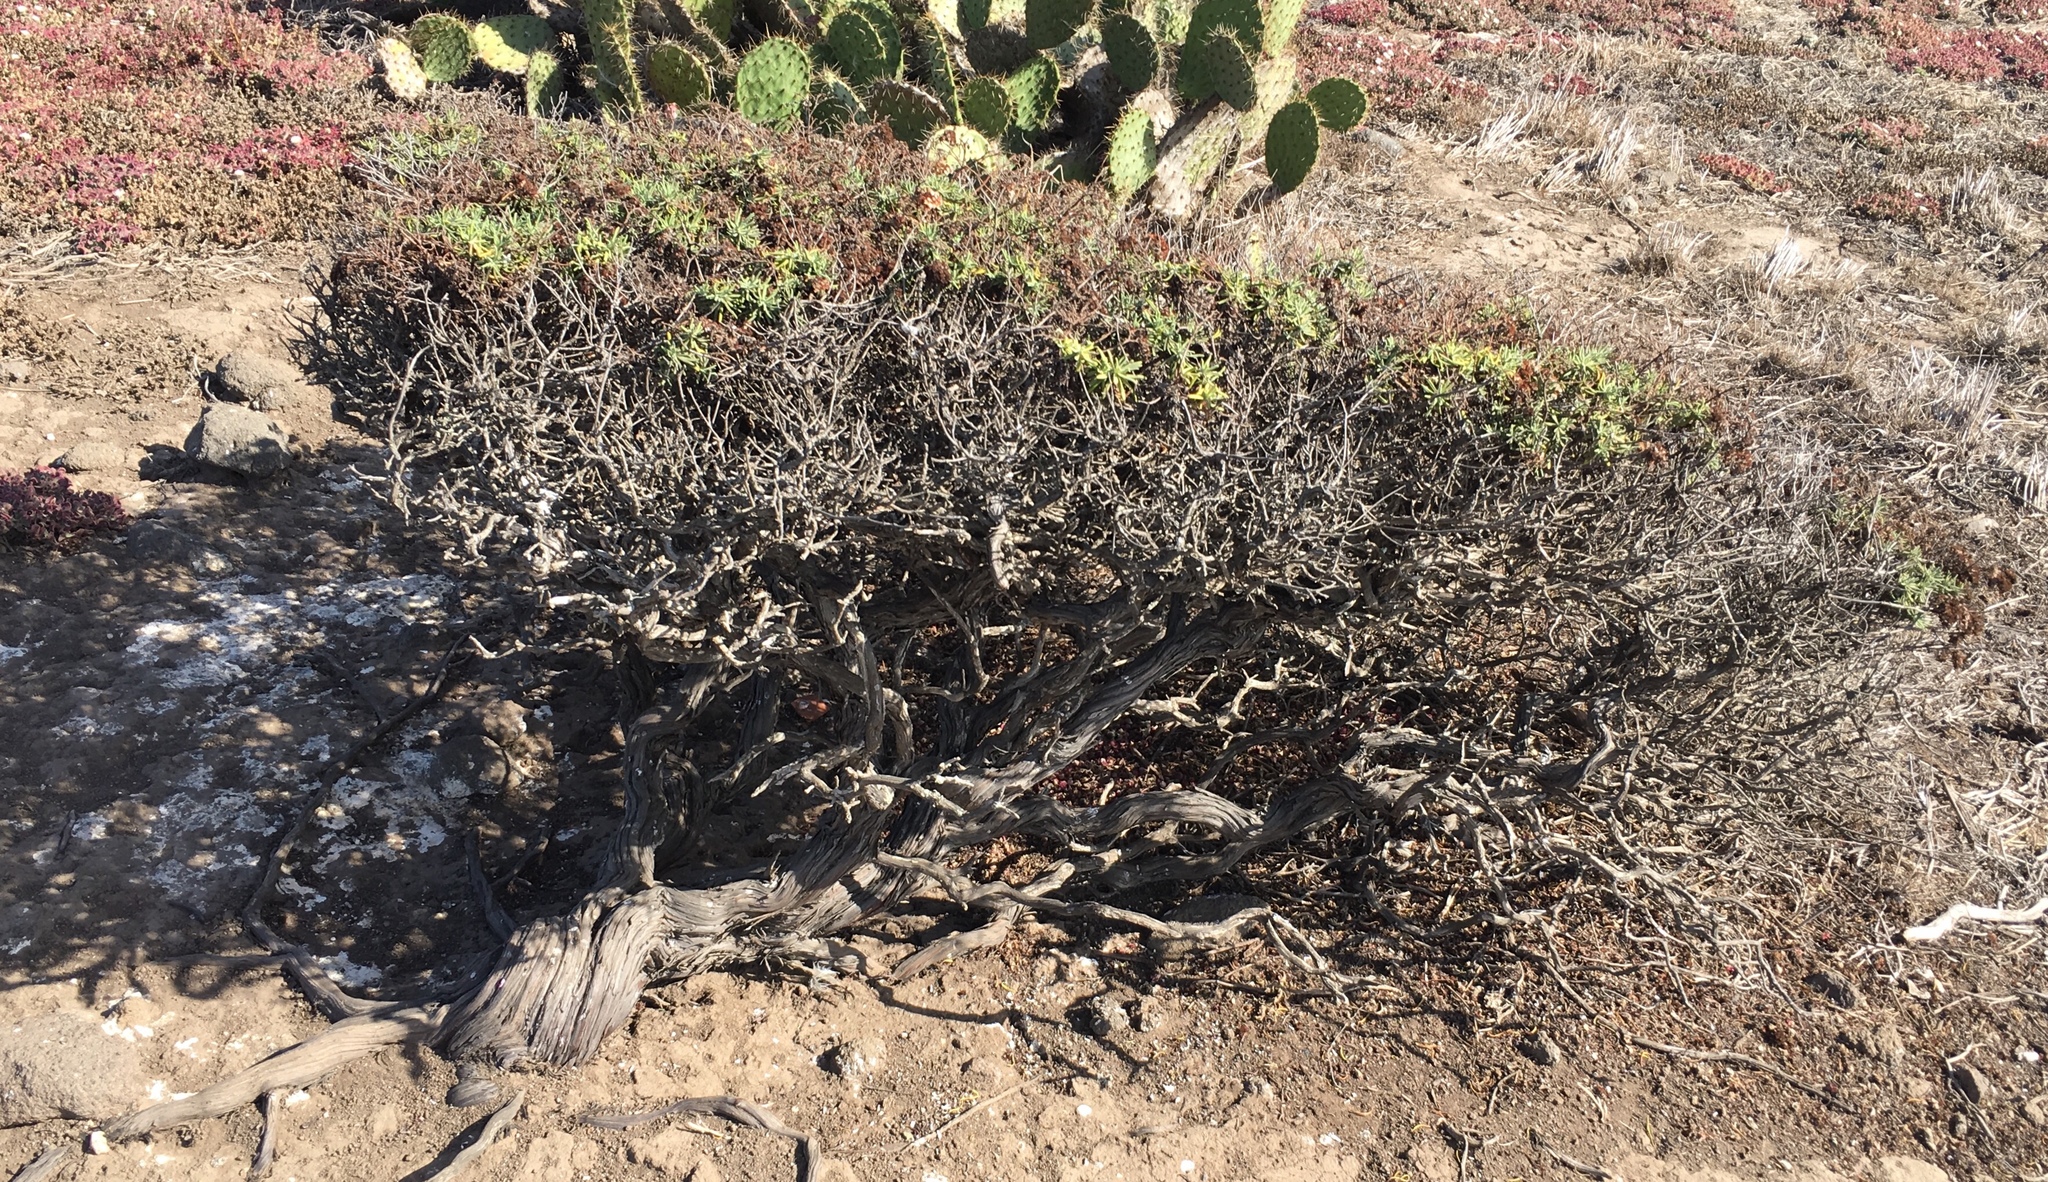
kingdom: Plantae
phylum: Tracheophyta
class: Magnoliopsida
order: Caryophyllales
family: Polygonaceae
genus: Eriogonum
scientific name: Eriogonum arborescens
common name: Island buckwheat
